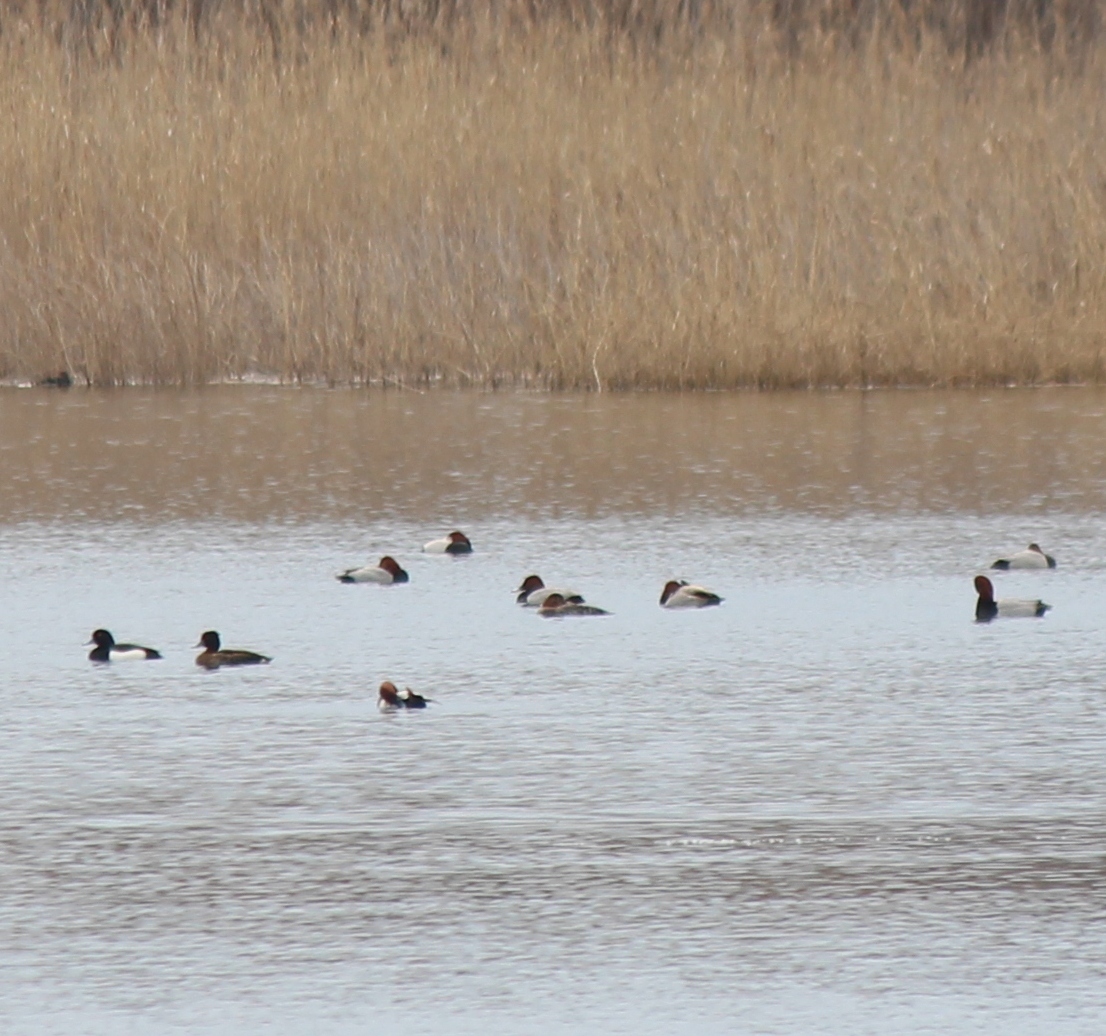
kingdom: Animalia
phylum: Chordata
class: Aves
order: Anseriformes
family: Anatidae
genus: Aythya
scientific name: Aythya ferina
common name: Common pochard
